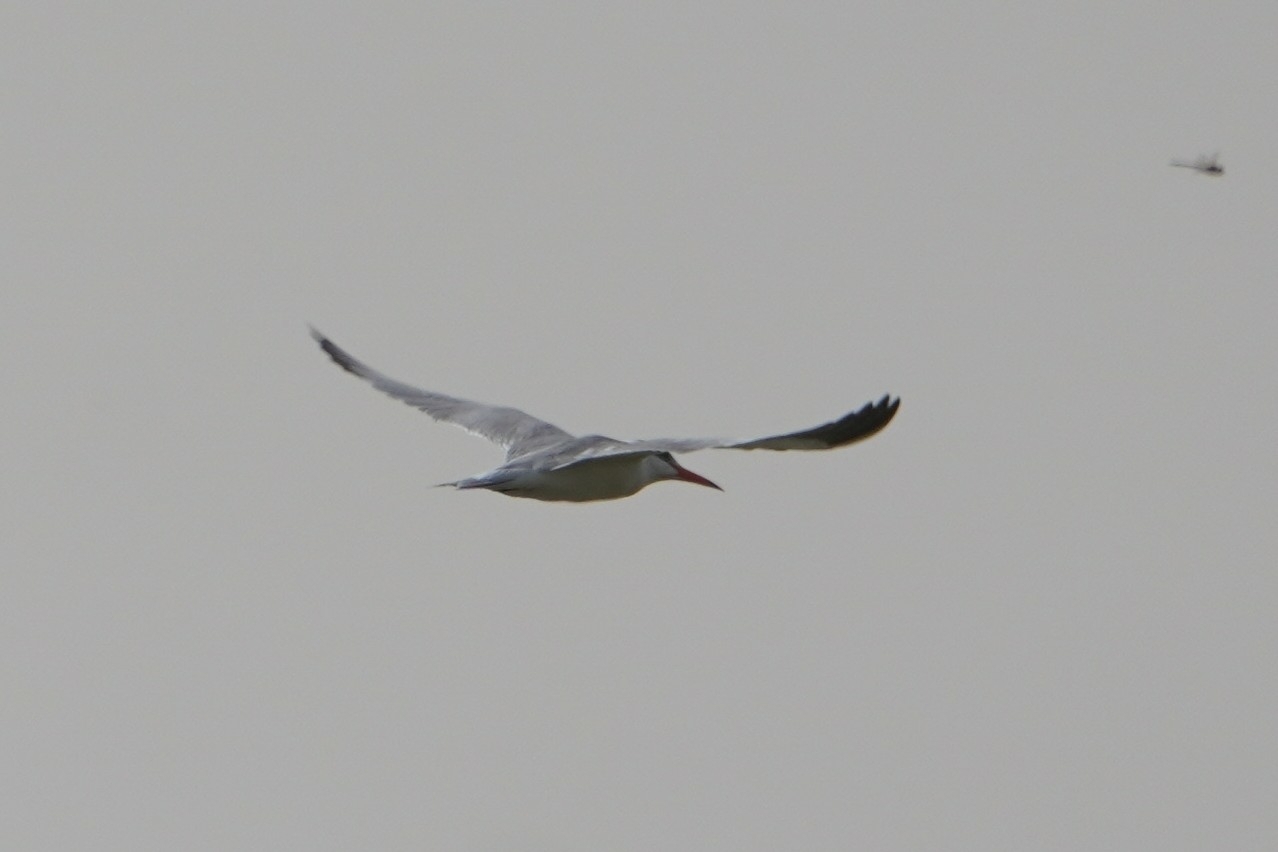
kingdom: Animalia
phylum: Chordata
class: Aves
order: Charadriiformes
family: Laridae
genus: Hydroprogne
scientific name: Hydroprogne caspia
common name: Caspian tern
